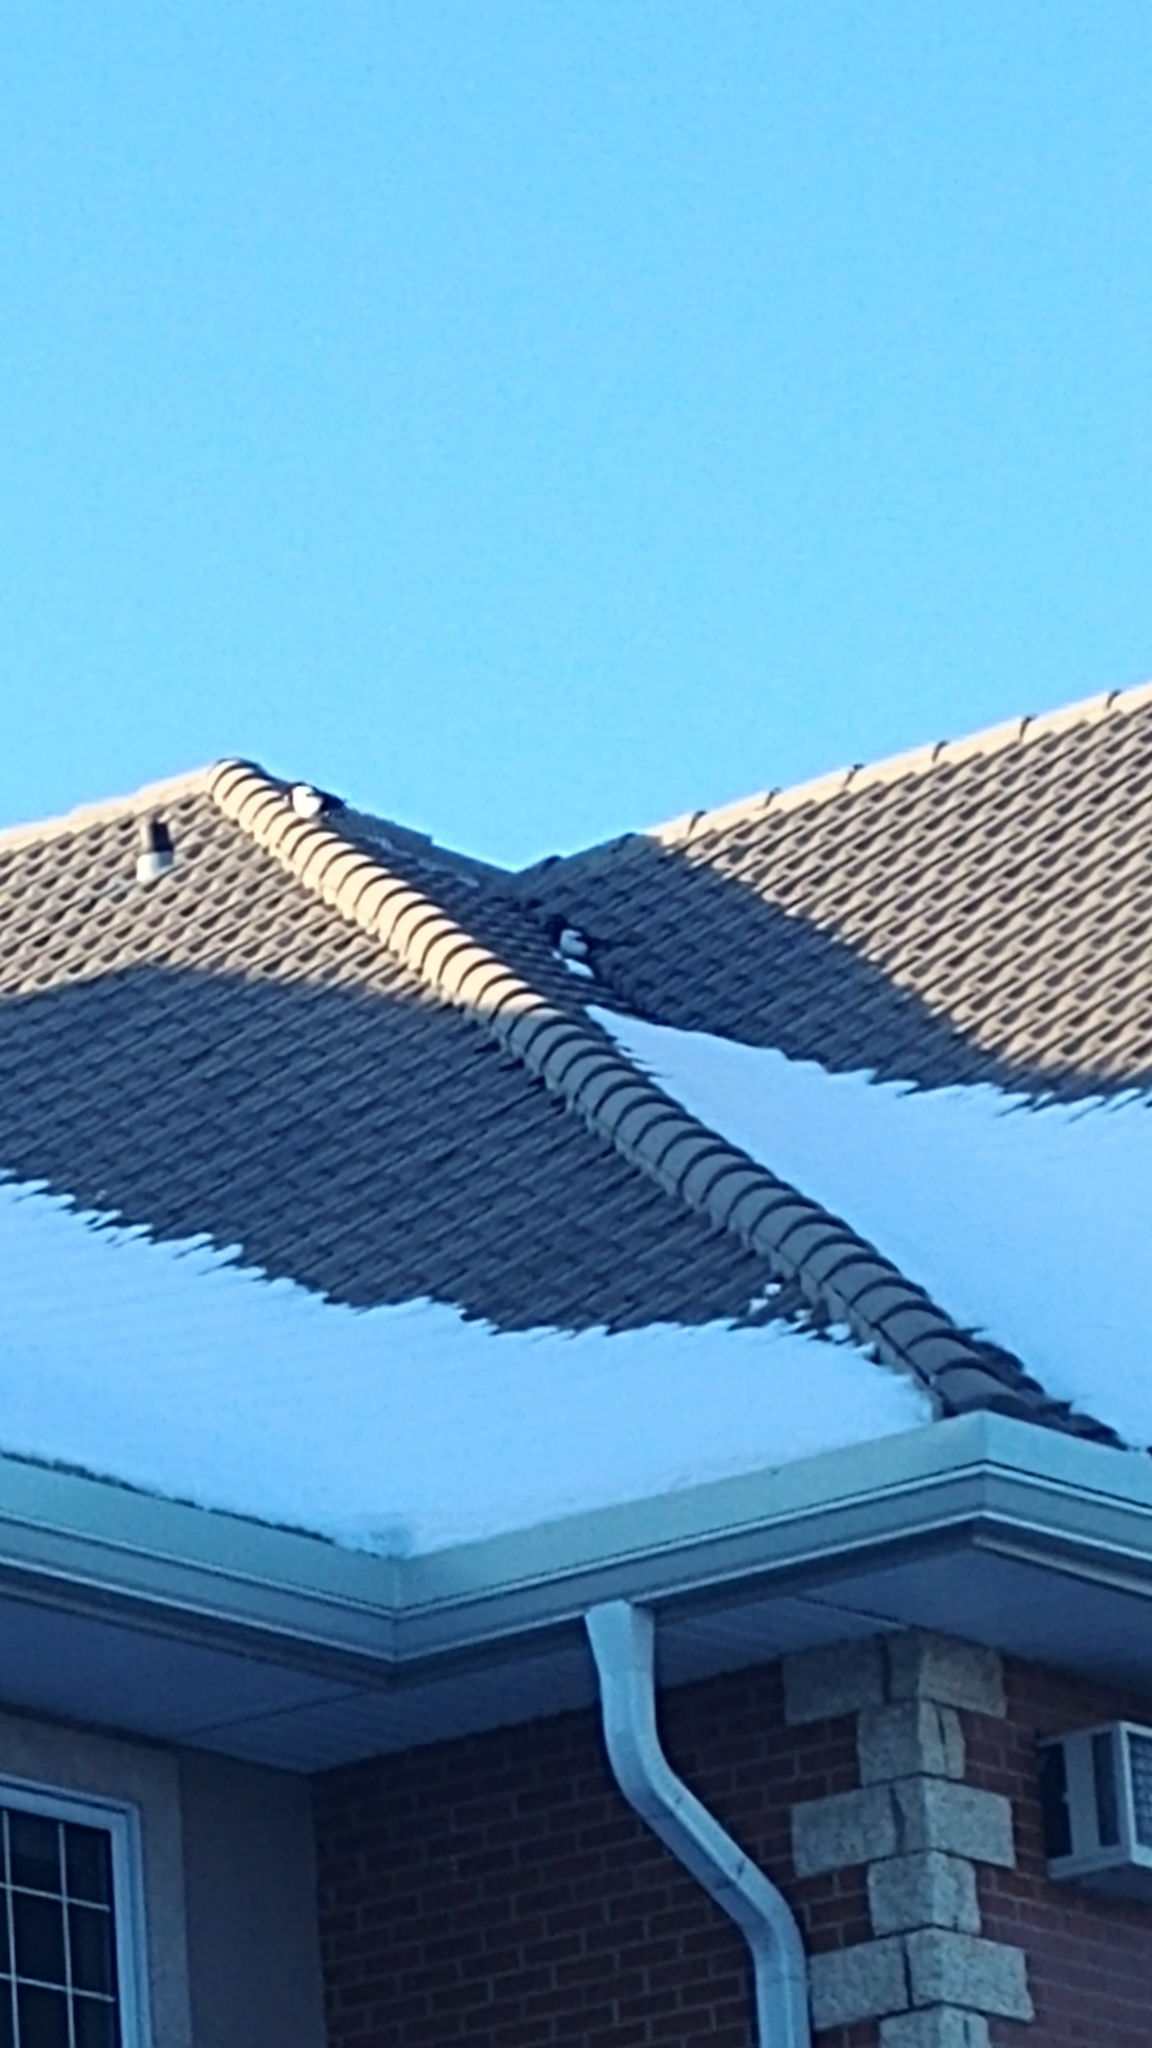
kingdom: Animalia
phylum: Chordata
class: Aves
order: Passeriformes
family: Corvidae
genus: Pica
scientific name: Pica hudsonia
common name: Black-billed magpie
